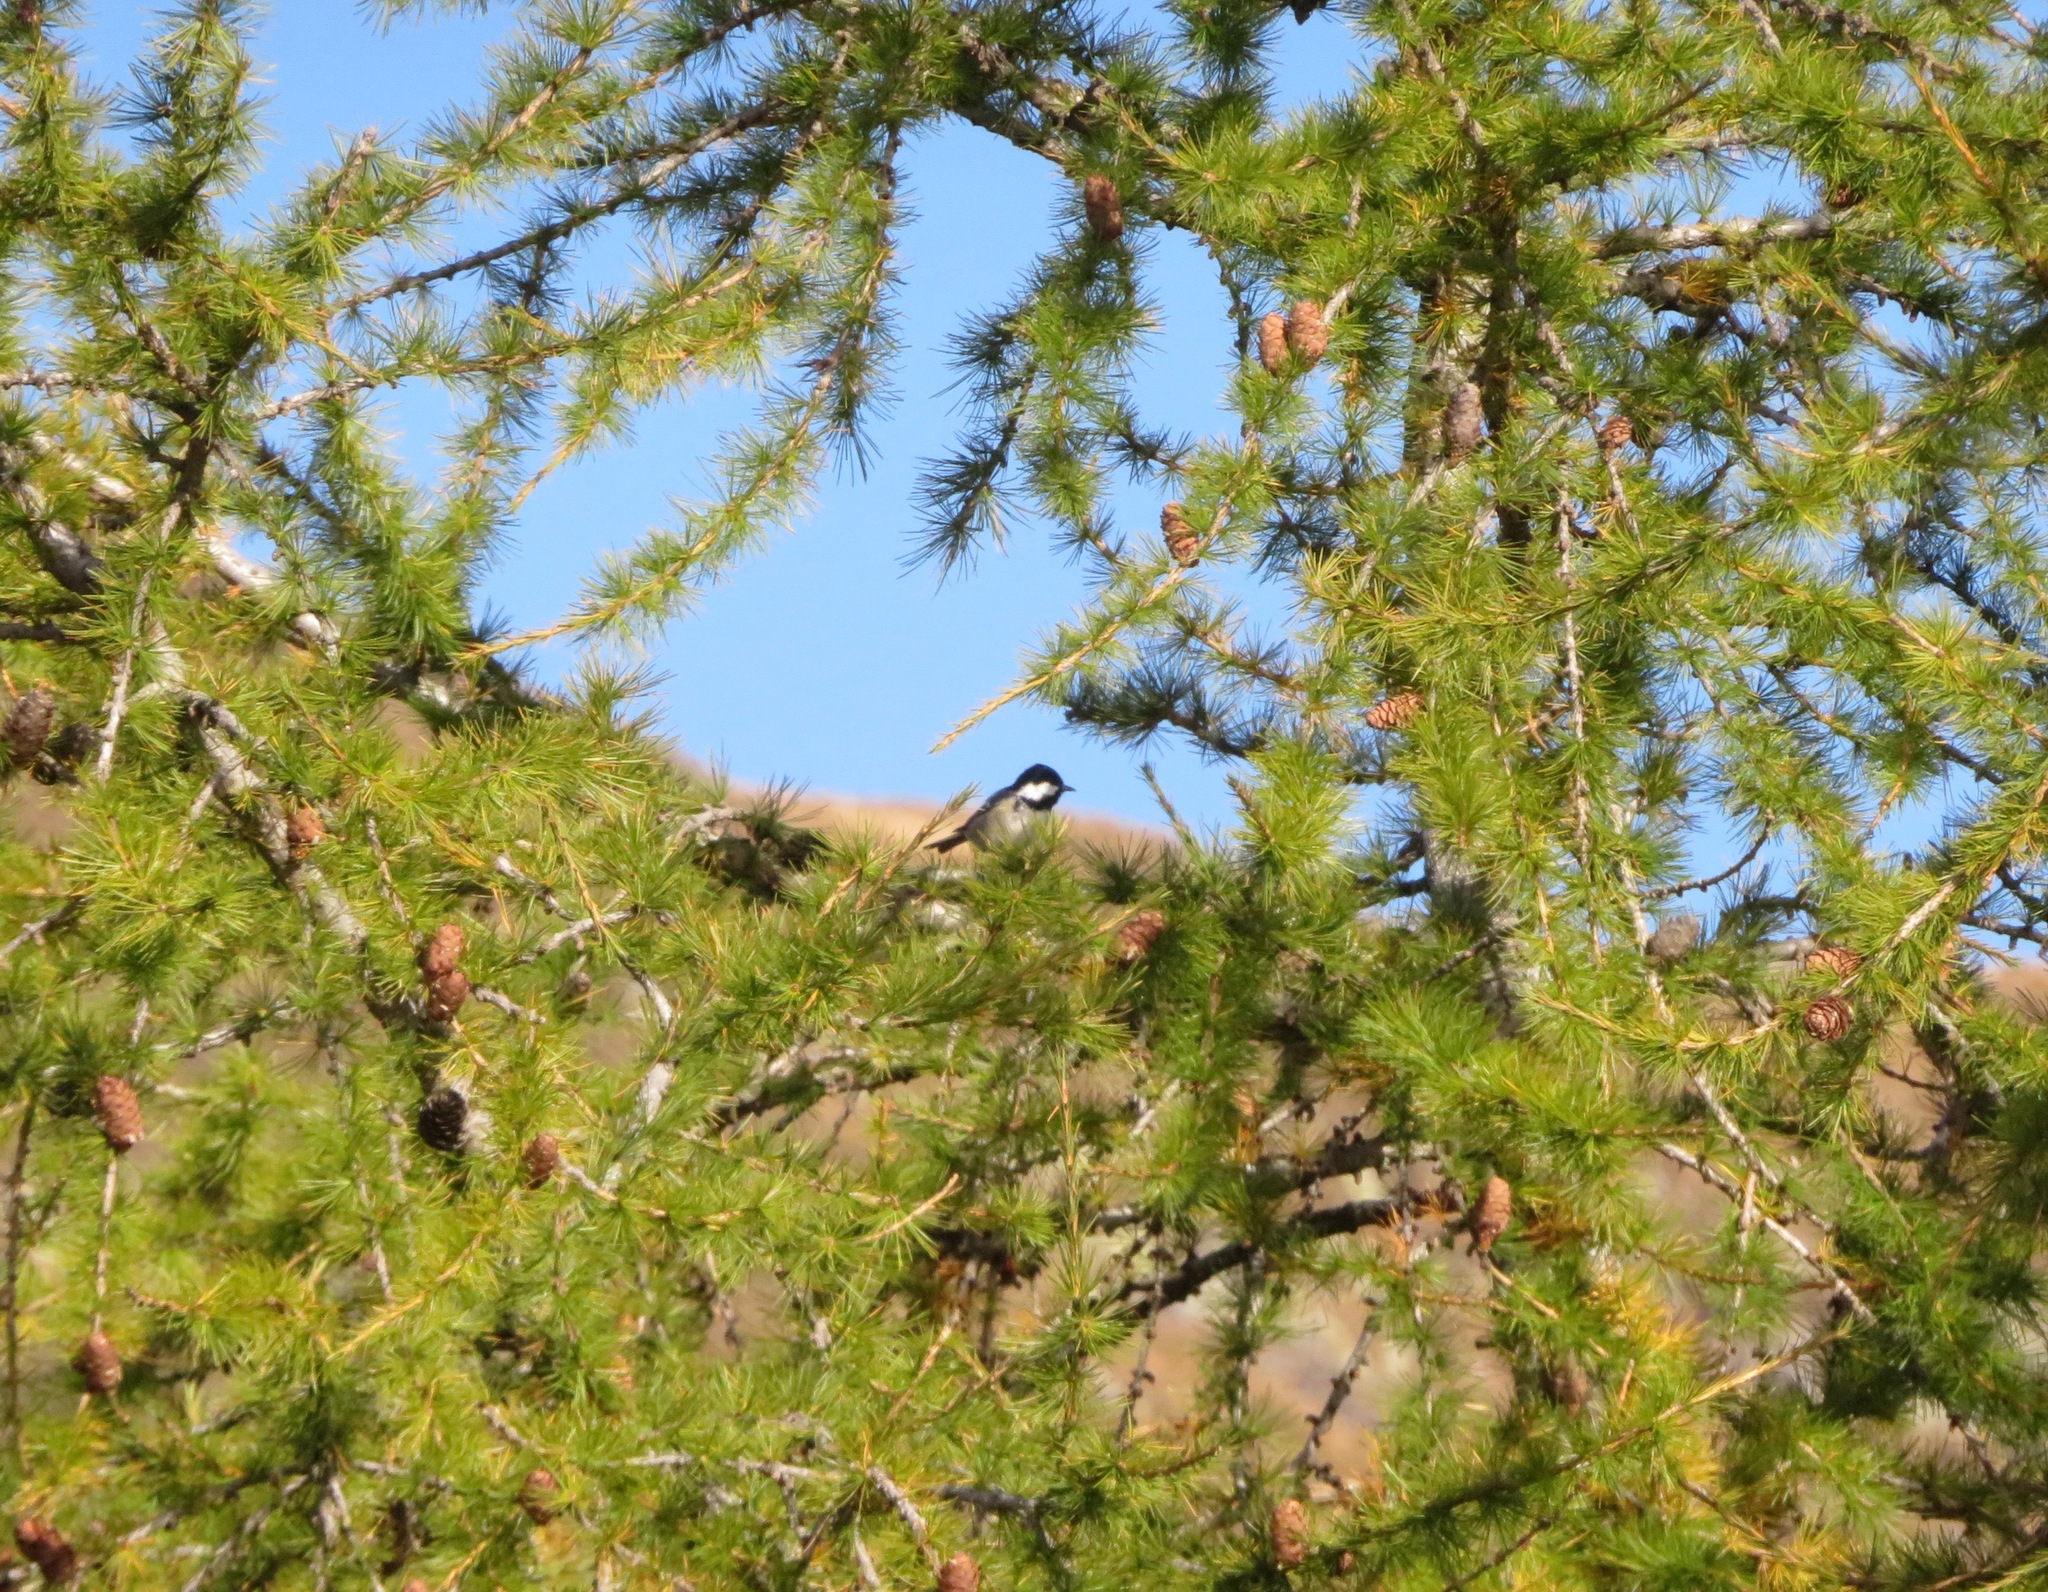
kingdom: Animalia
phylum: Chordata
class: Aves
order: Passeriformes
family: Paridae
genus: Periparus
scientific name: Periparus ater
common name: Coal tit
